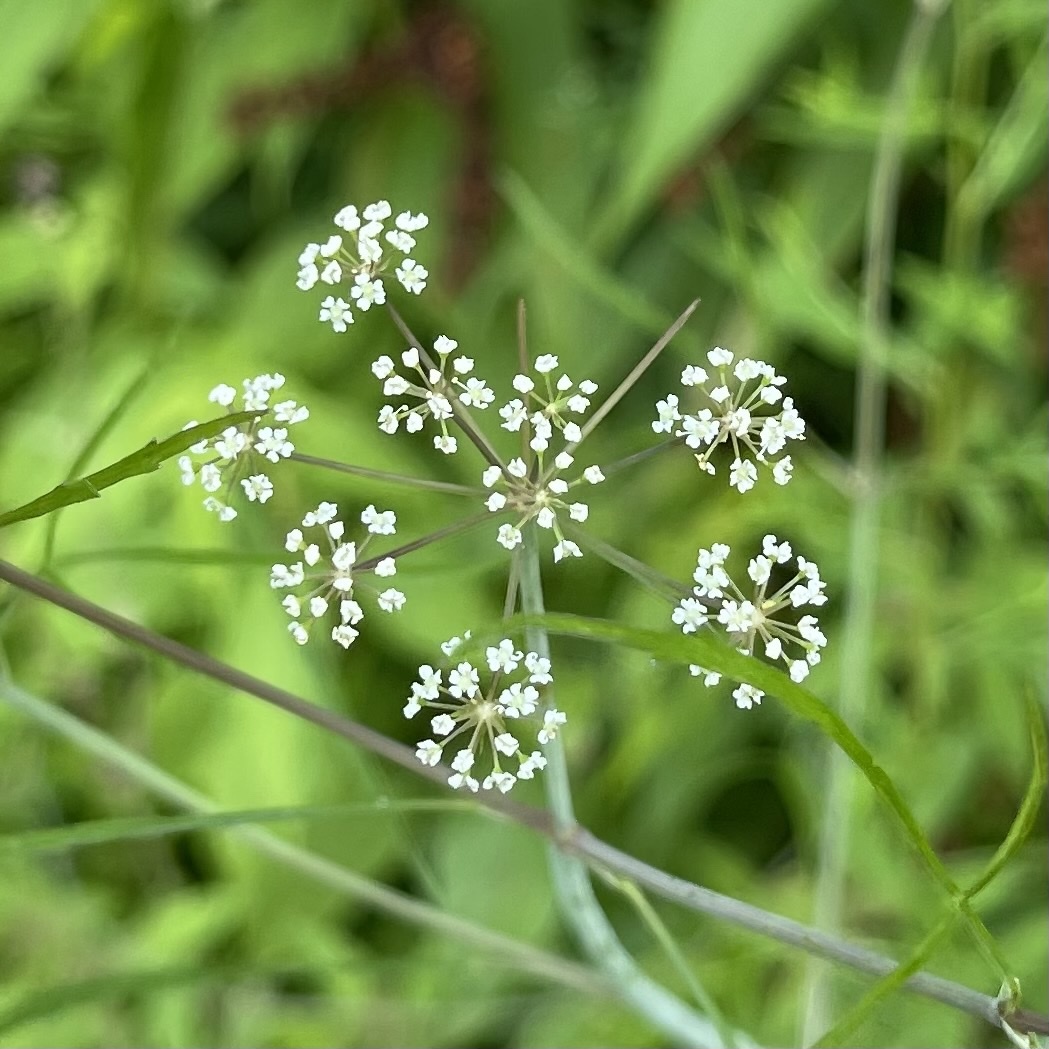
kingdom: Plantae
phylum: Tracheophyta
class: Magnoliopsida
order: Apiales
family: Apiaceae
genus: Cicuta
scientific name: Cicuta bulbifera
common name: Bulb-bearing water-hemlock
